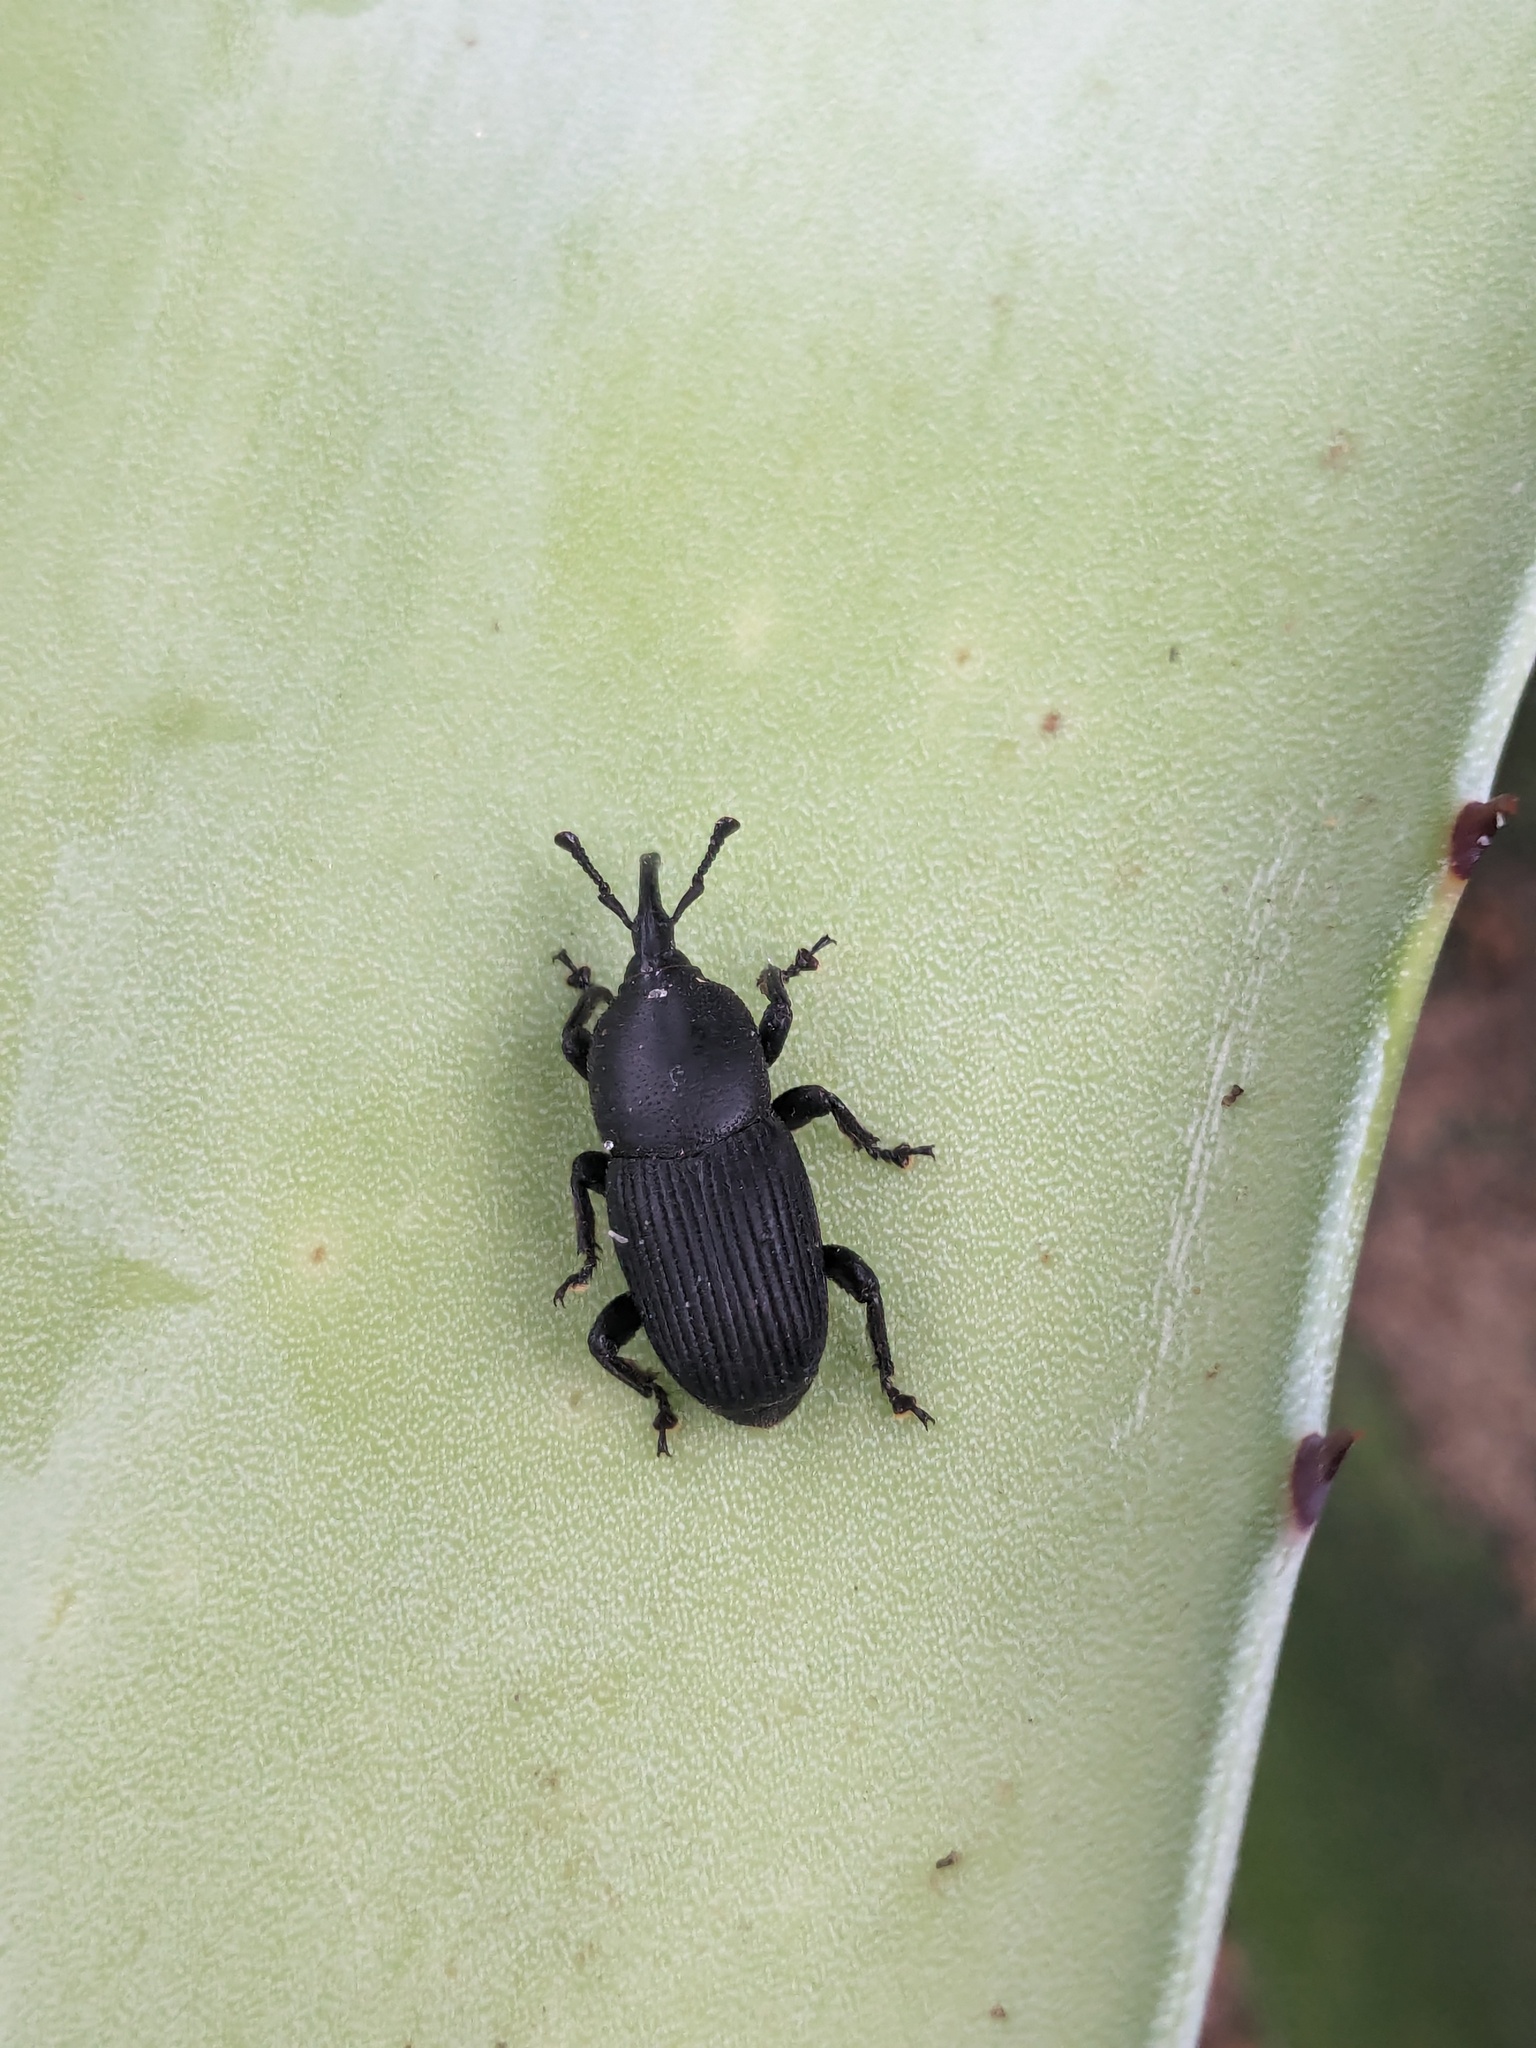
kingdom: Animalia
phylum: Arthropoda
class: Insecta
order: Coleoptera
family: Dryophthoridae
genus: Scyphophorus
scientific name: Scyphophorus acupunctatus
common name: Weevil
